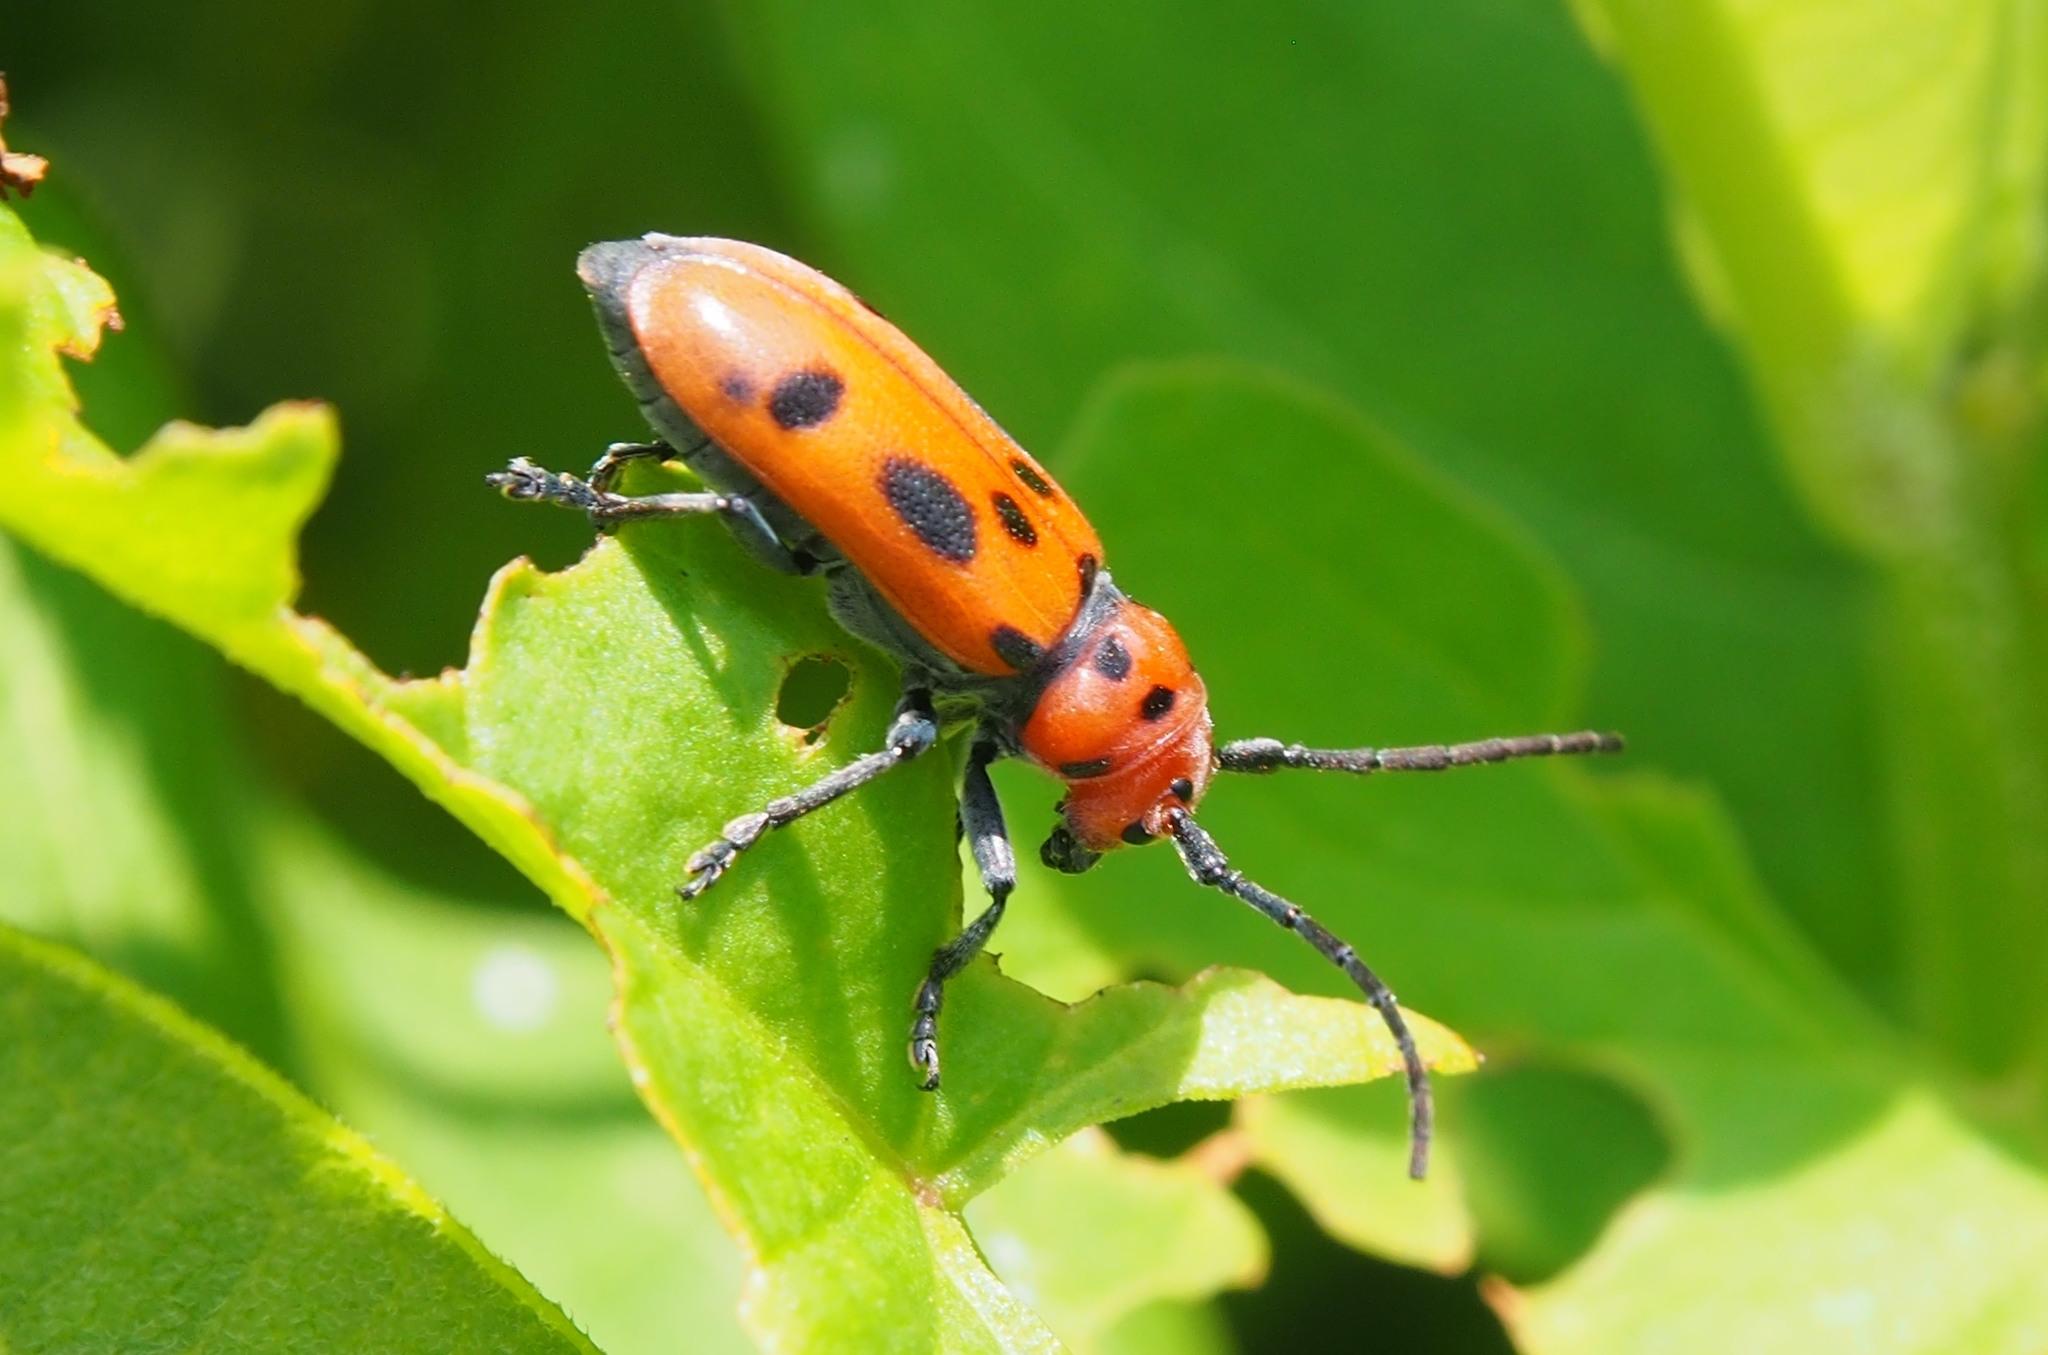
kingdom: Animalia
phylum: Arthropoda
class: Insecta
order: Coleoptera
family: Cerambycidae
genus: Tetraopes
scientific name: Tetraopes tetrophthalmus
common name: Red milkweed beetle
